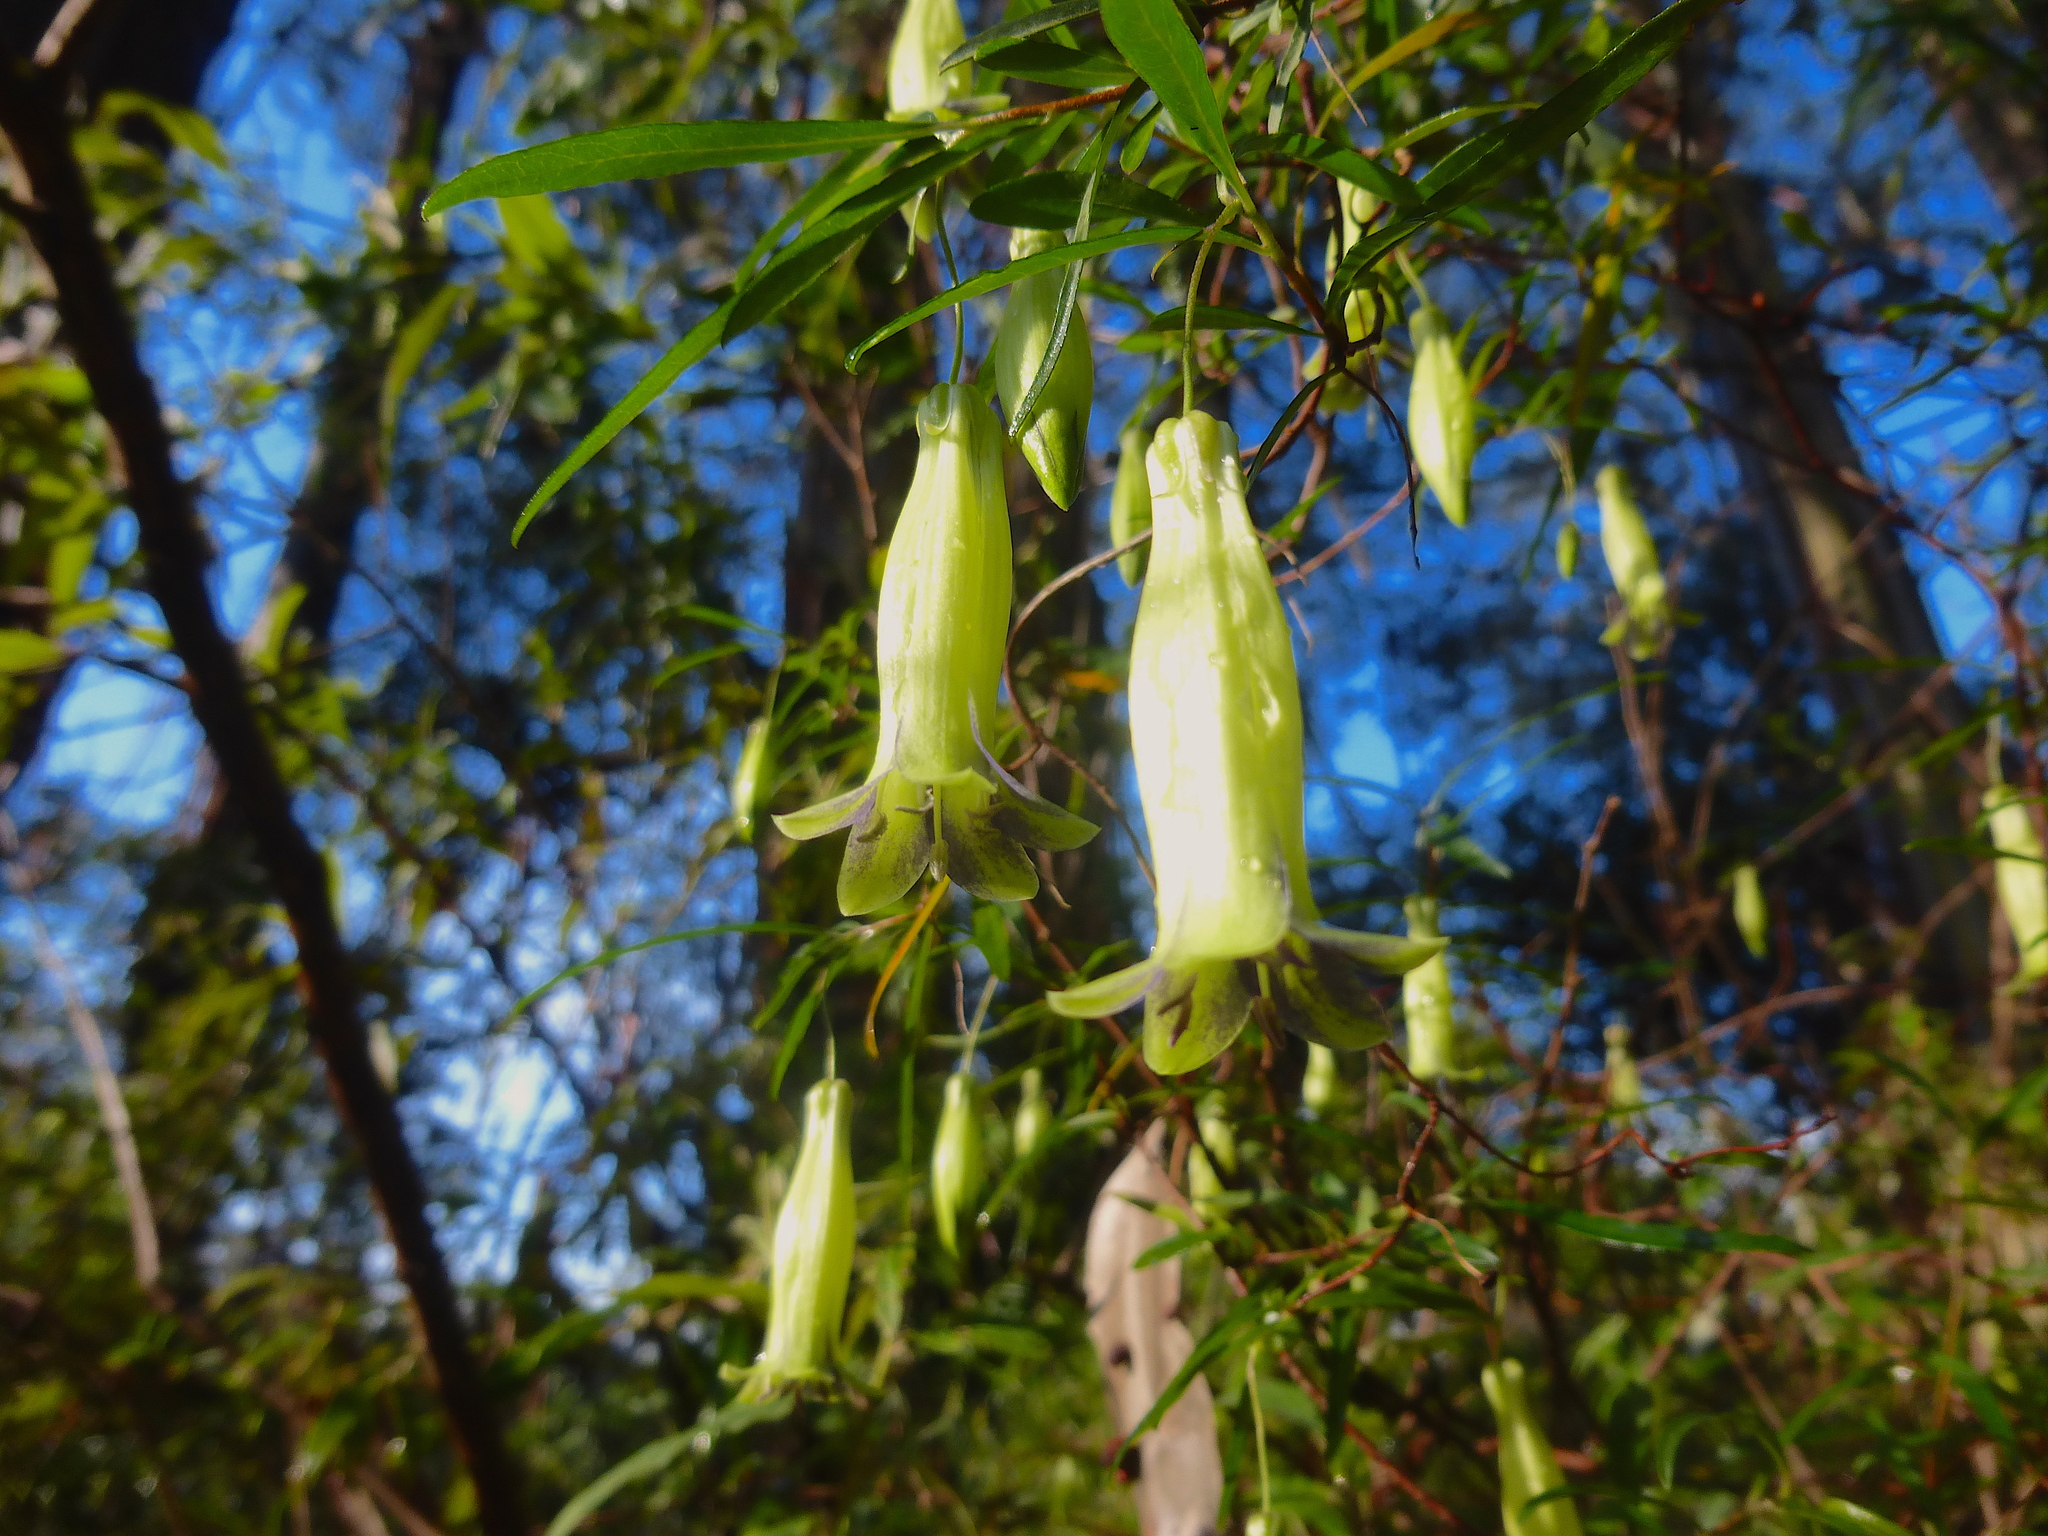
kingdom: Plantae
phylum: Tracheophyta
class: Magnoliopsida
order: Apiales
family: Pittosporaceae
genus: Billardiera
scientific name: Billardiera macrantha
